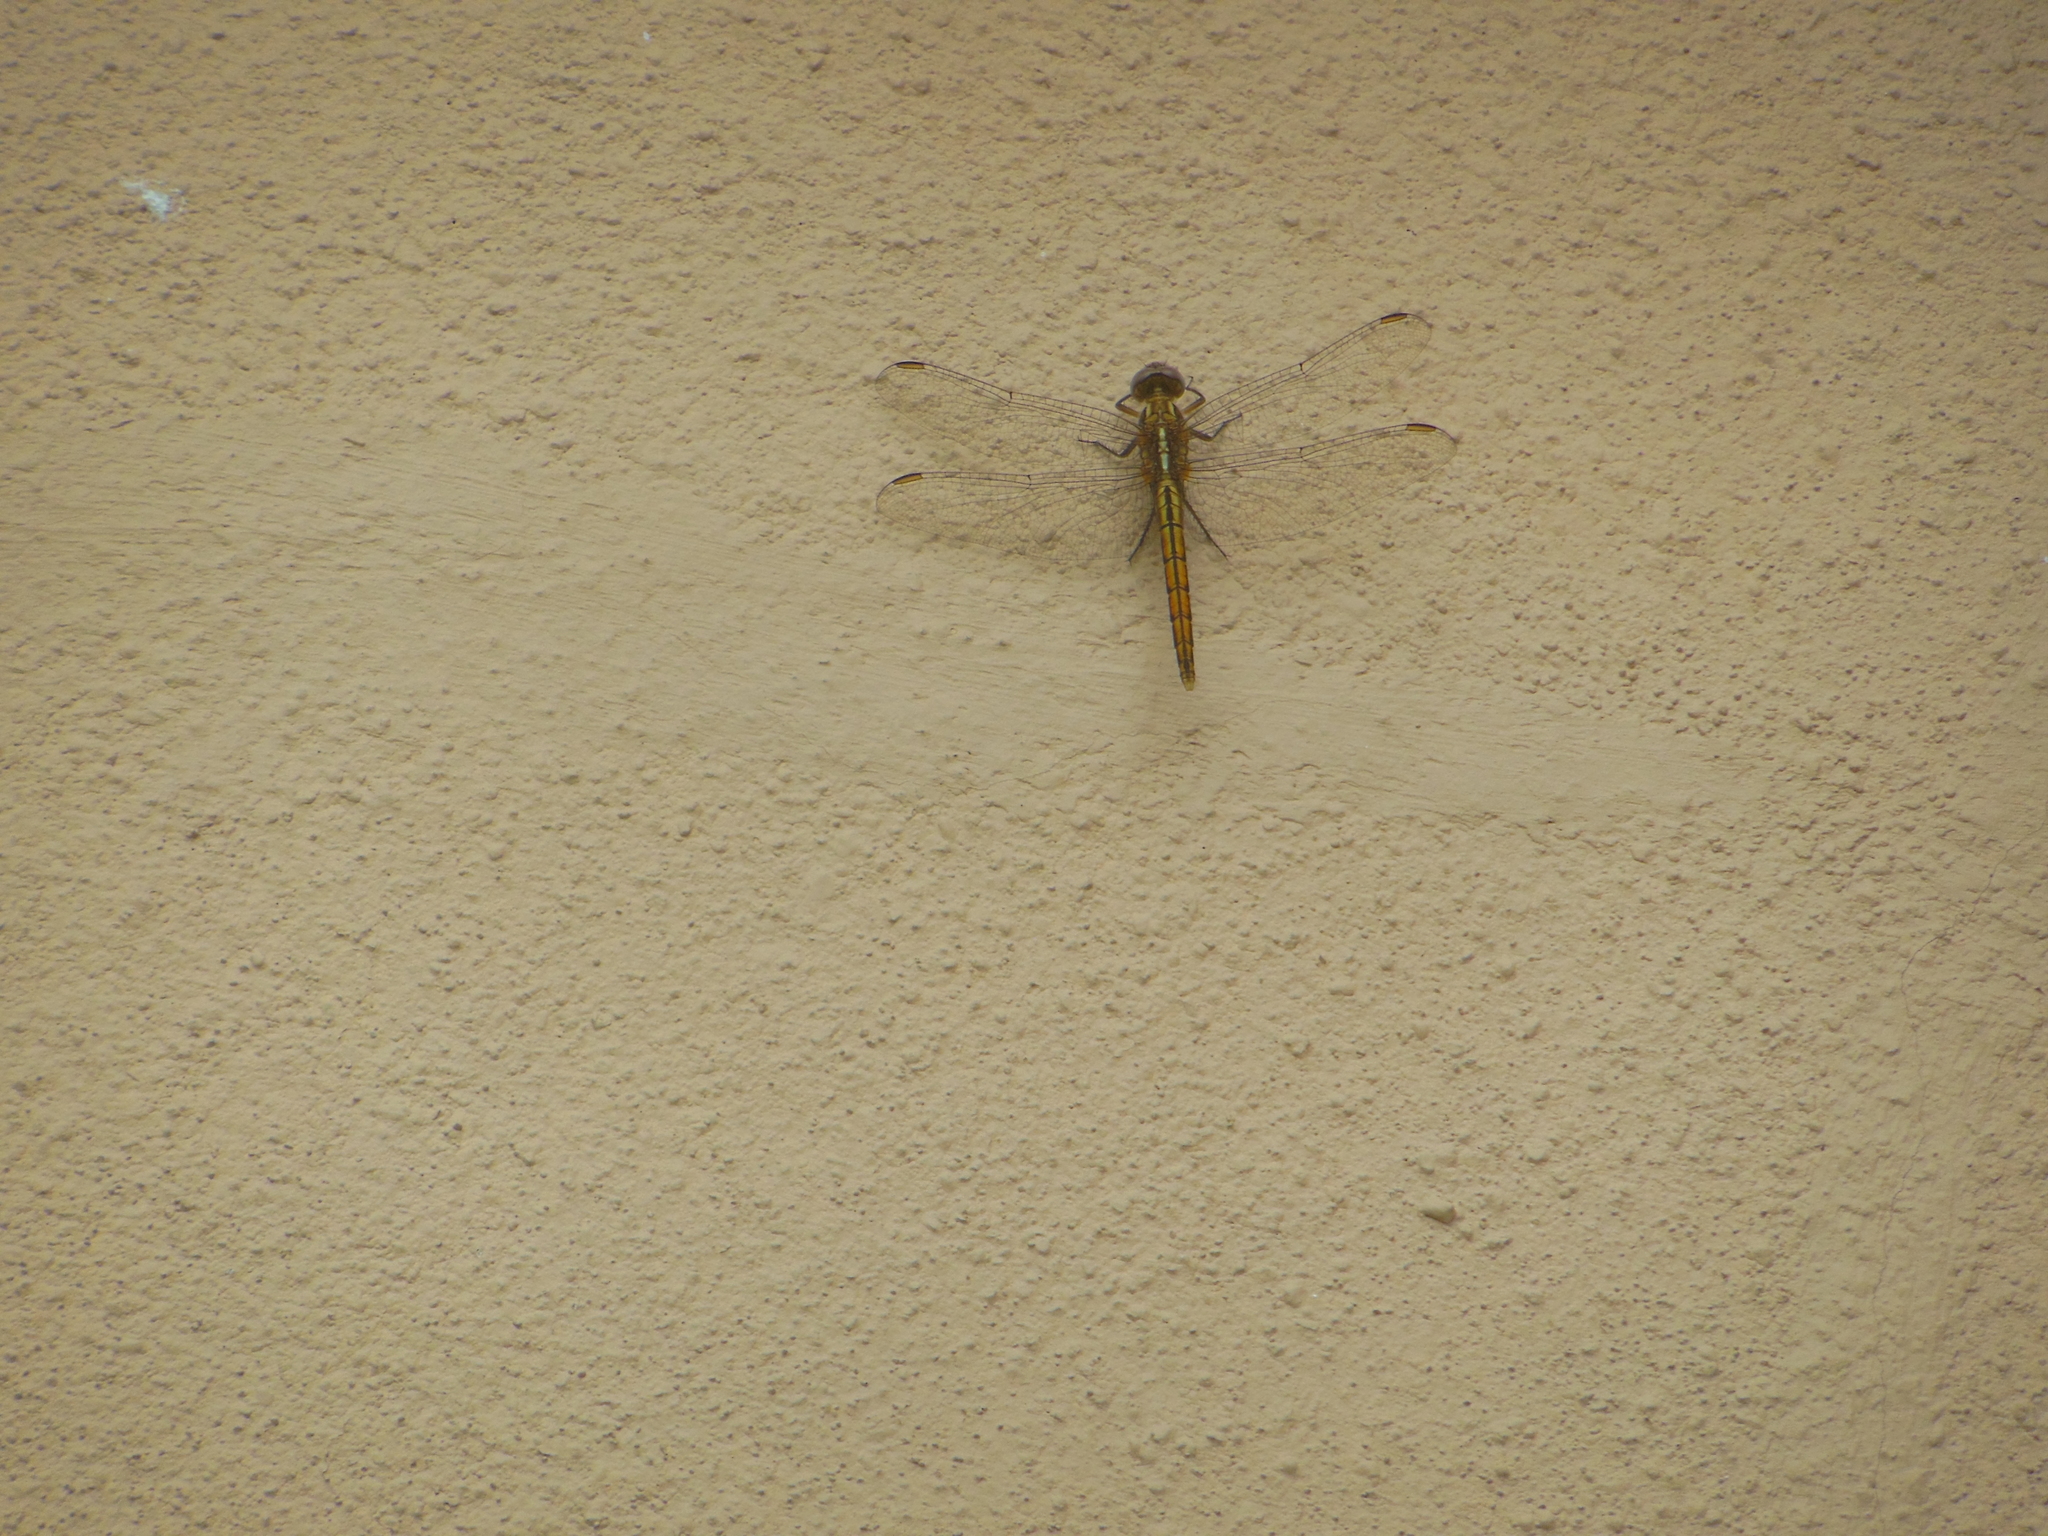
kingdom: Animalia
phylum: Arthropoda
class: Insecta
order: Odonata
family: Libellulidae
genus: Pantala
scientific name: Pantala flavescens
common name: Wandering glider
